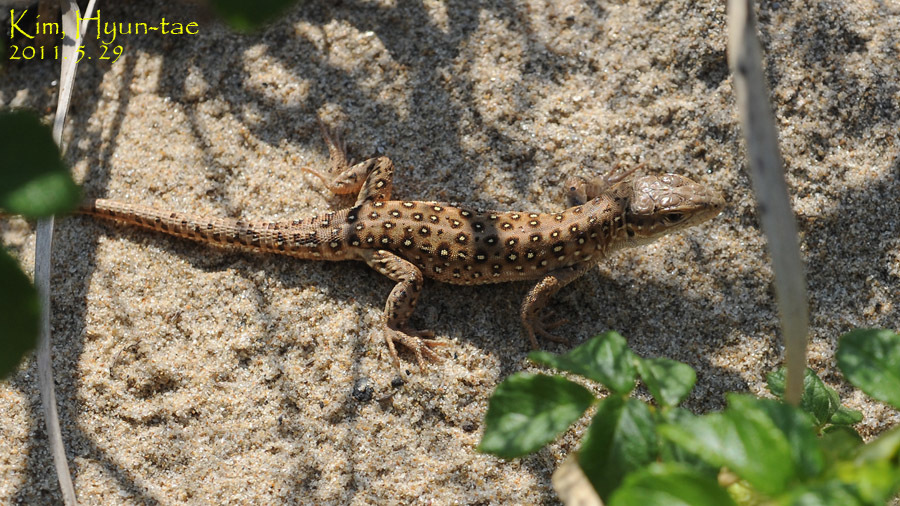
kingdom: Animalia
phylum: Chordata
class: Squamata
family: Lacertidae
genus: Eremias
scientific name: Eremias argus
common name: Mongolia racerunner
